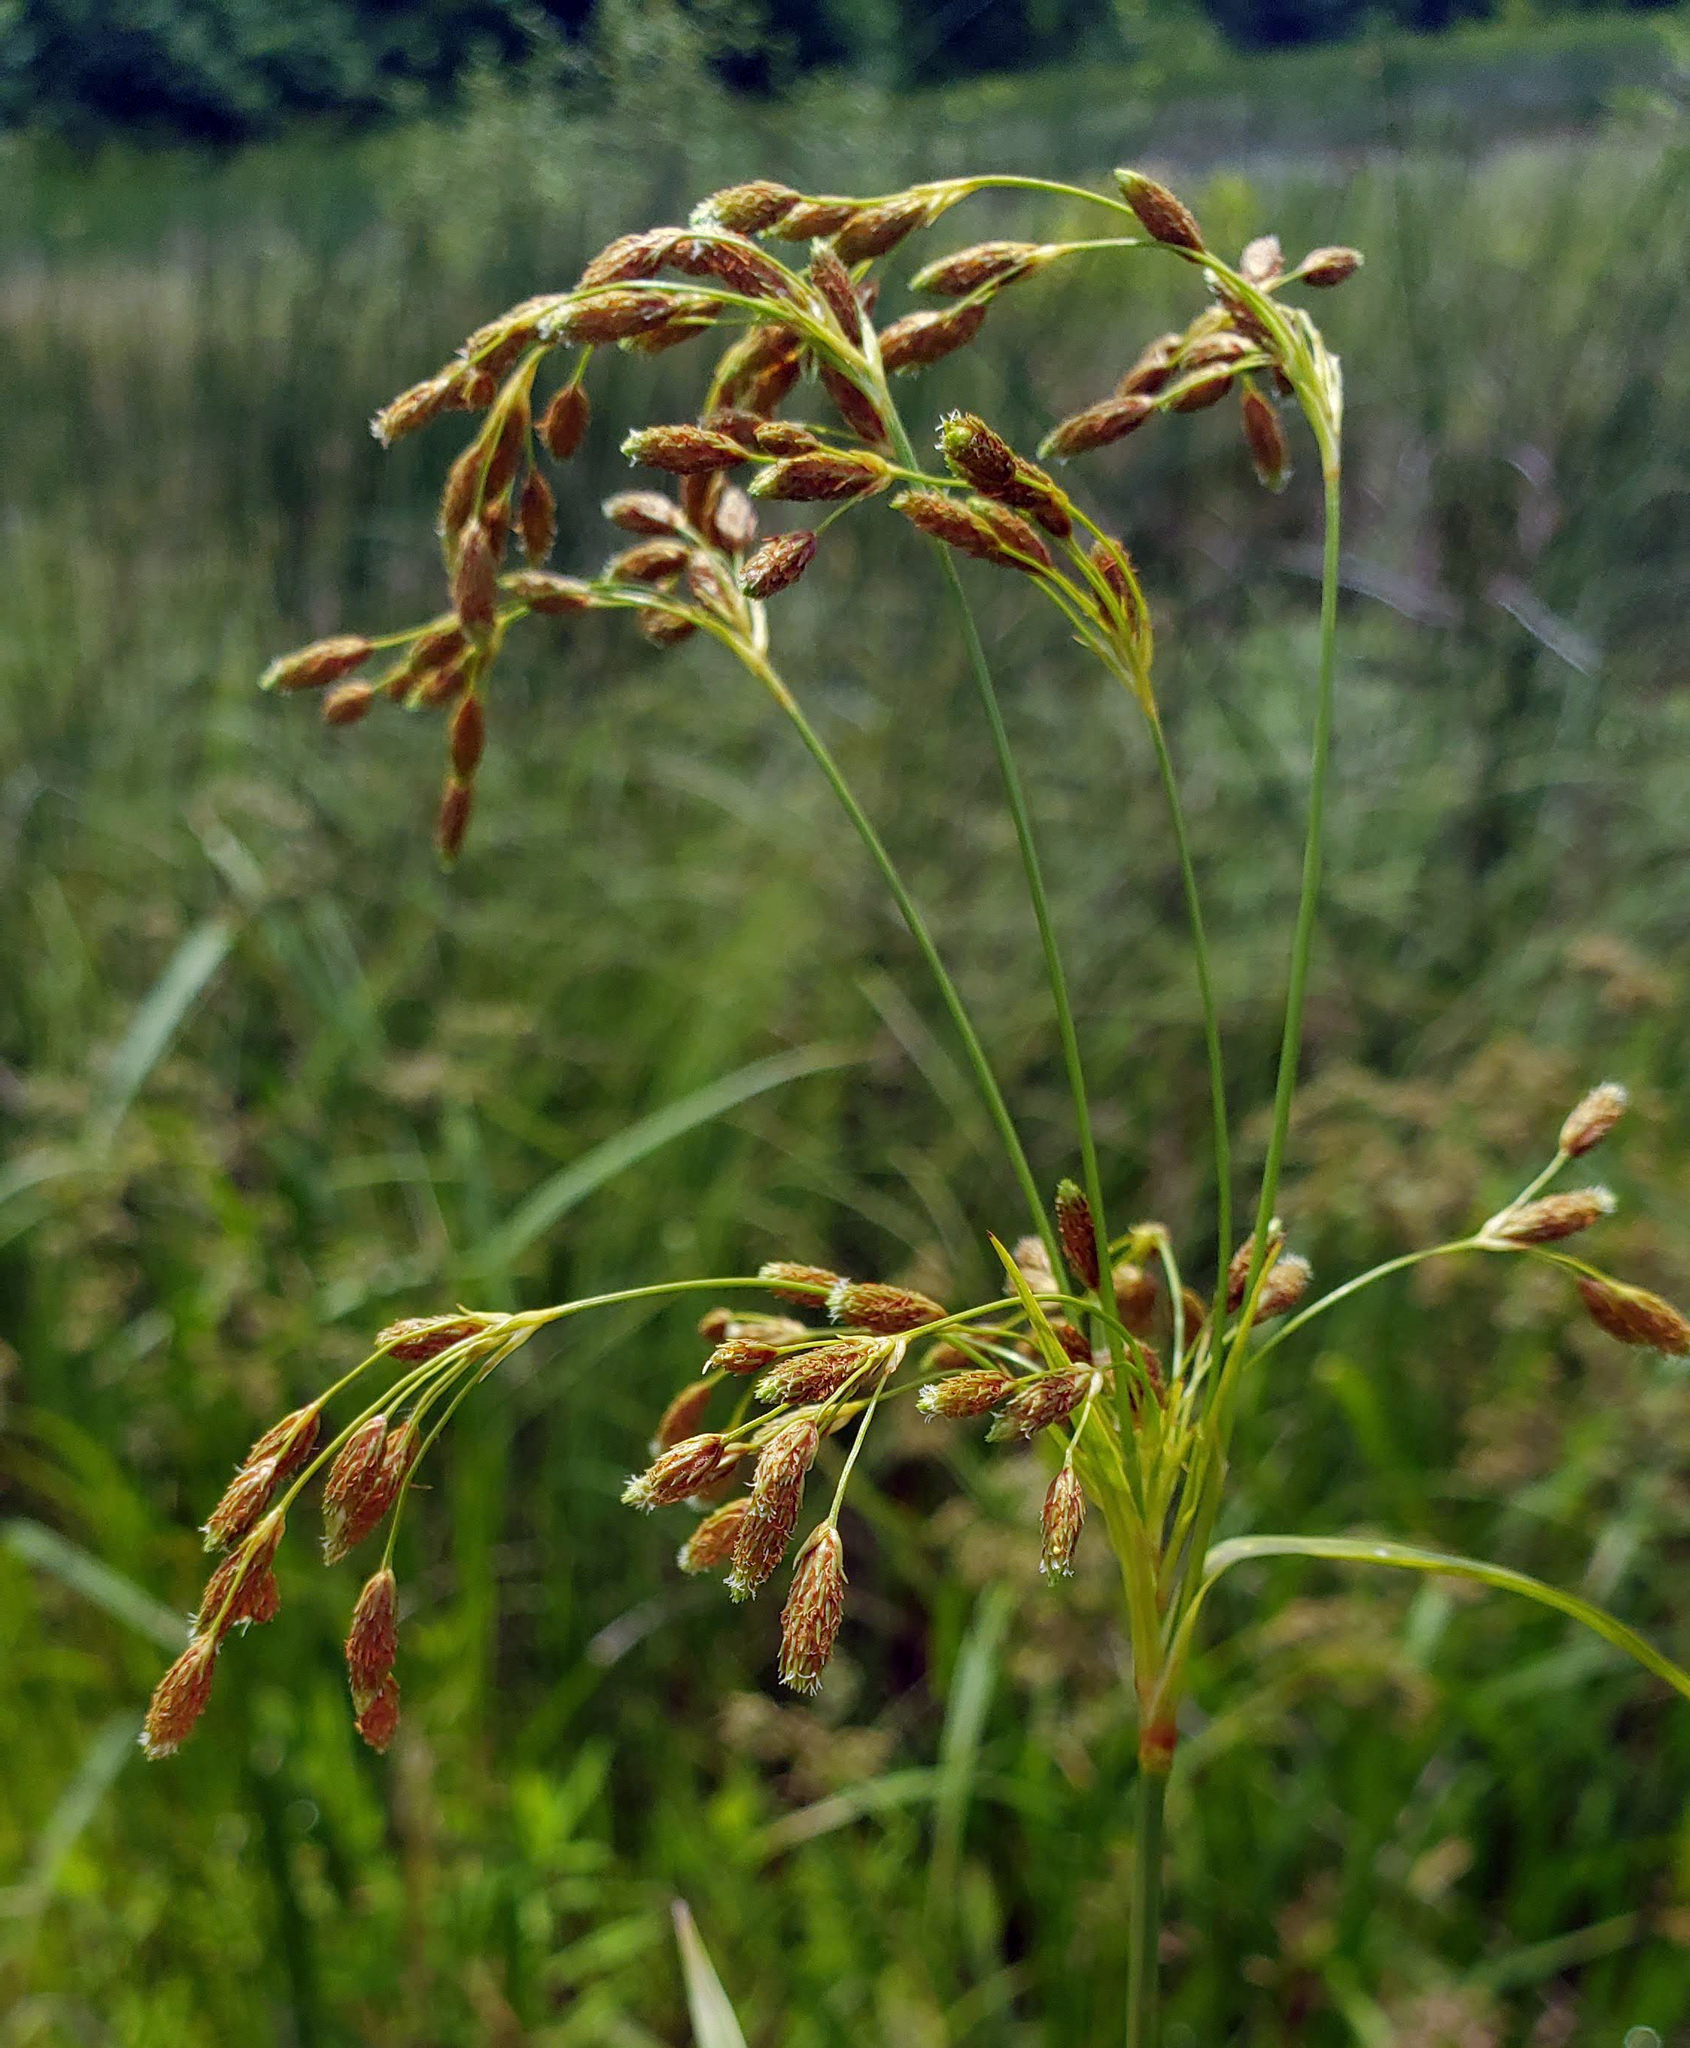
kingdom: Plantae
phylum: Tracheophyta
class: Liliopsida
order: Poales
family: Cyperaceae
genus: Scirpus
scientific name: Scirpus pendulus
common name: Nodding bulrush
